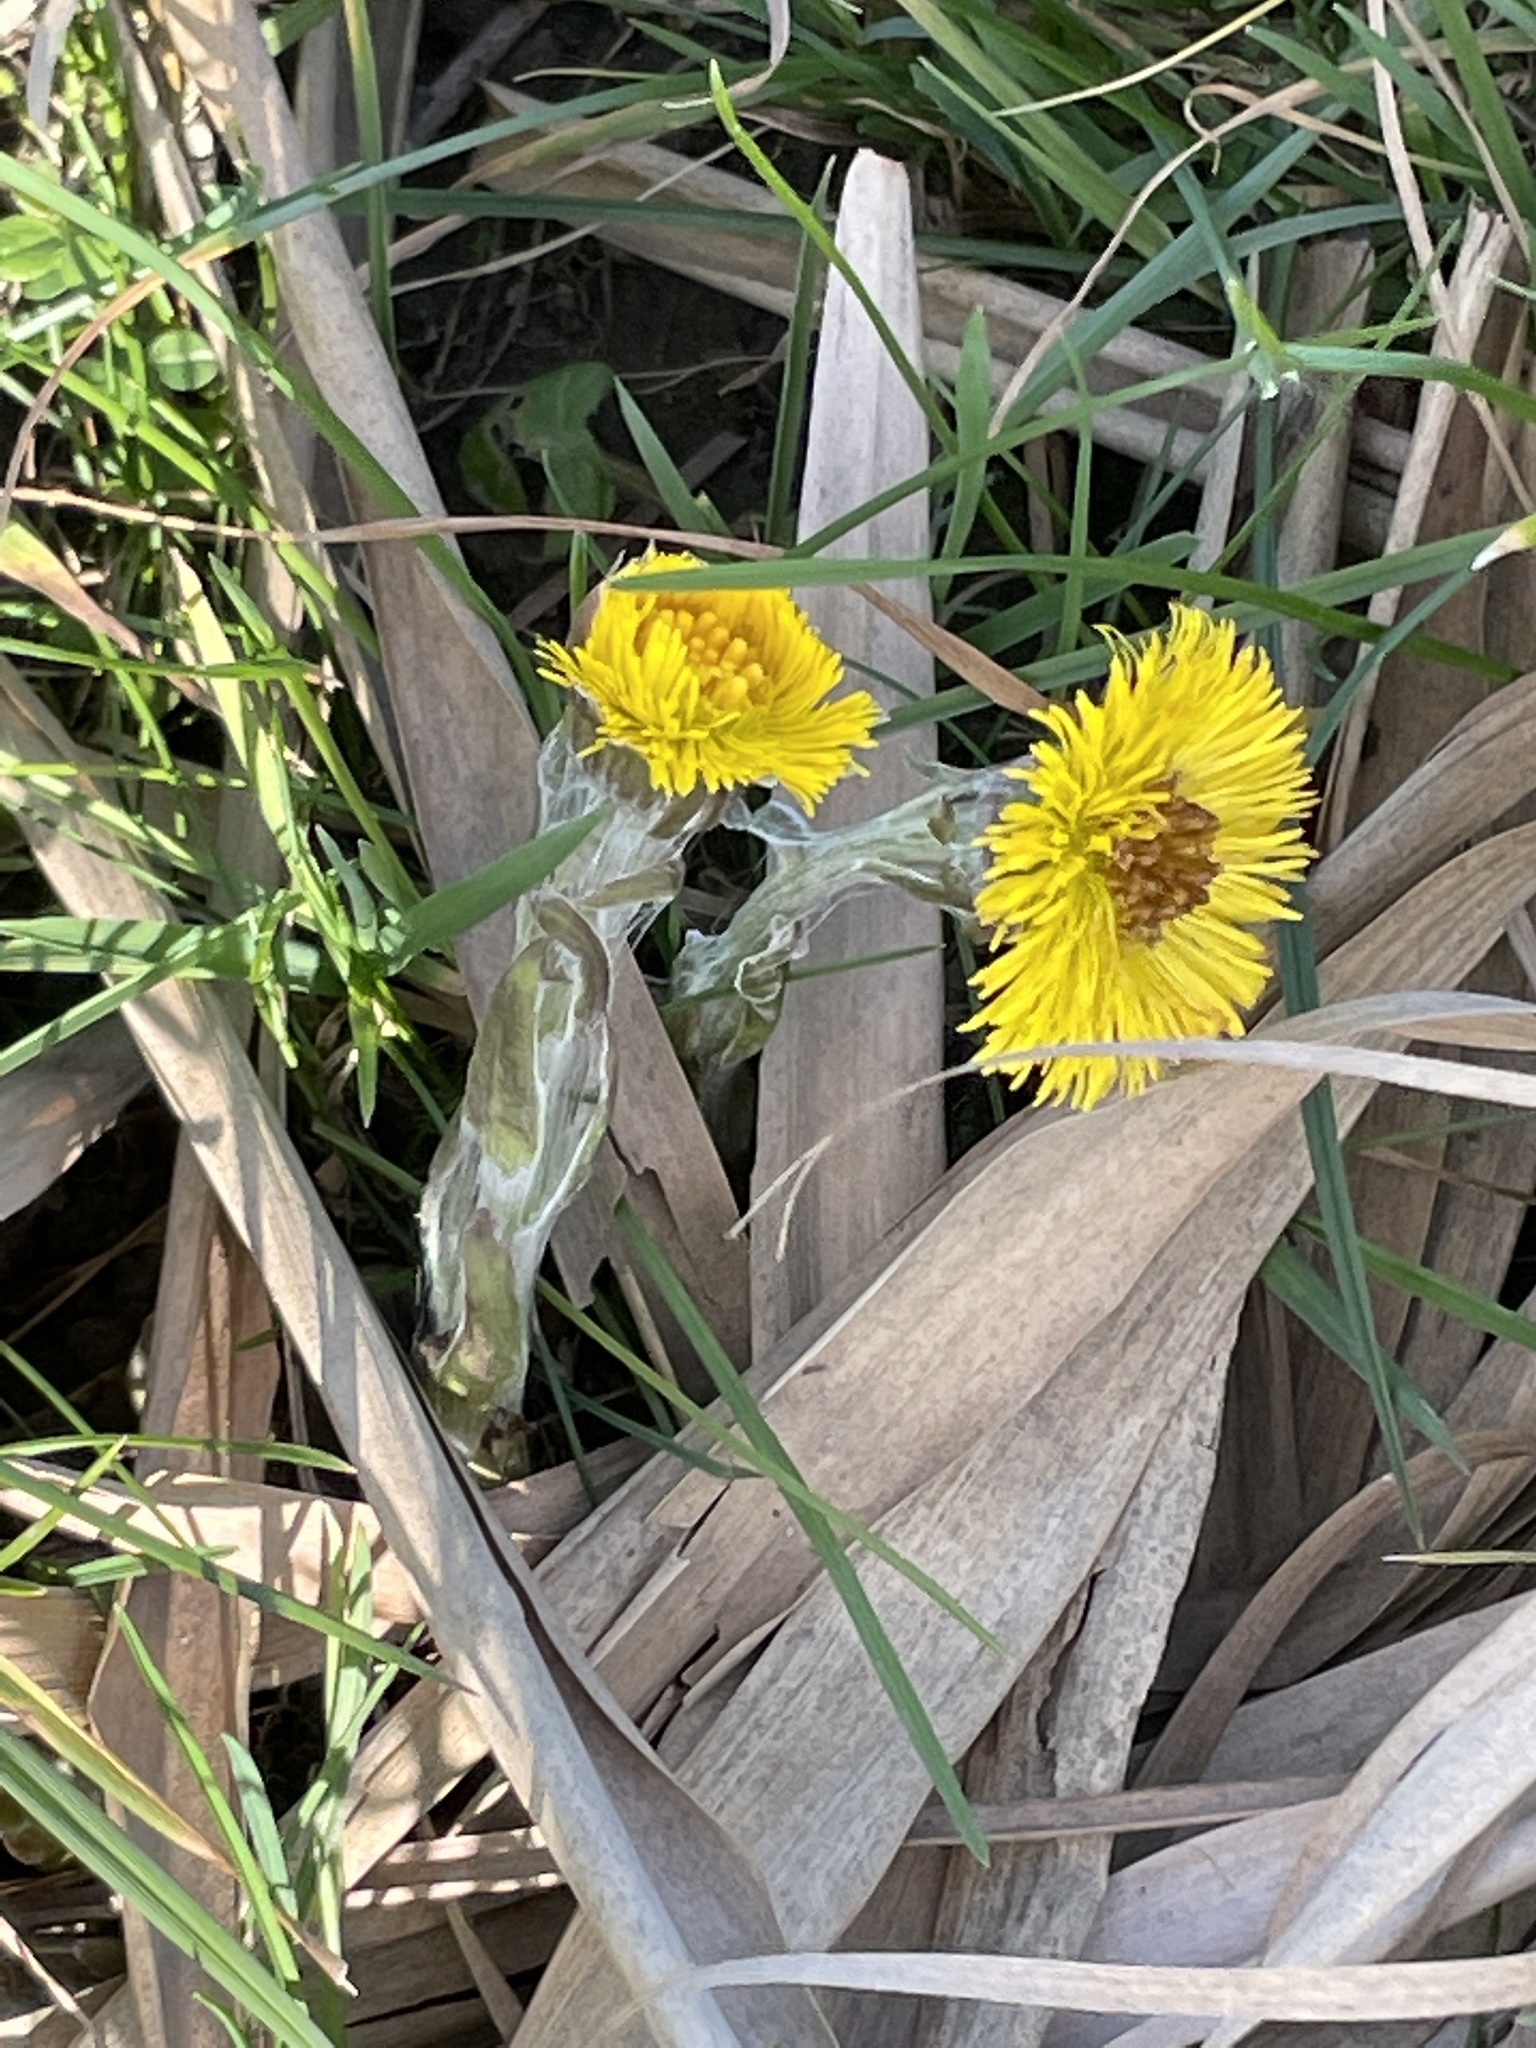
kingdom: Plantae
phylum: Tracheophyta
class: Magnoliopsida
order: Asterales
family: Asteraceae
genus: Tussilago
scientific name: Tussilago farfara
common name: Coltsfoot
